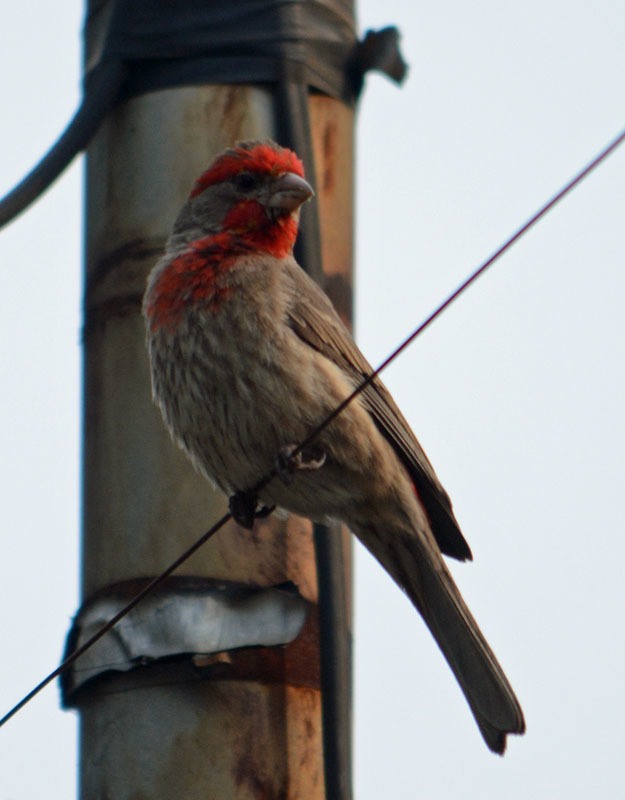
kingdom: Animalia
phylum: Chordata
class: Aves
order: Passeriformes
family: Fringillidae
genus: Haemorhous
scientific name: Haemorhous mexicanus
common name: House finch
